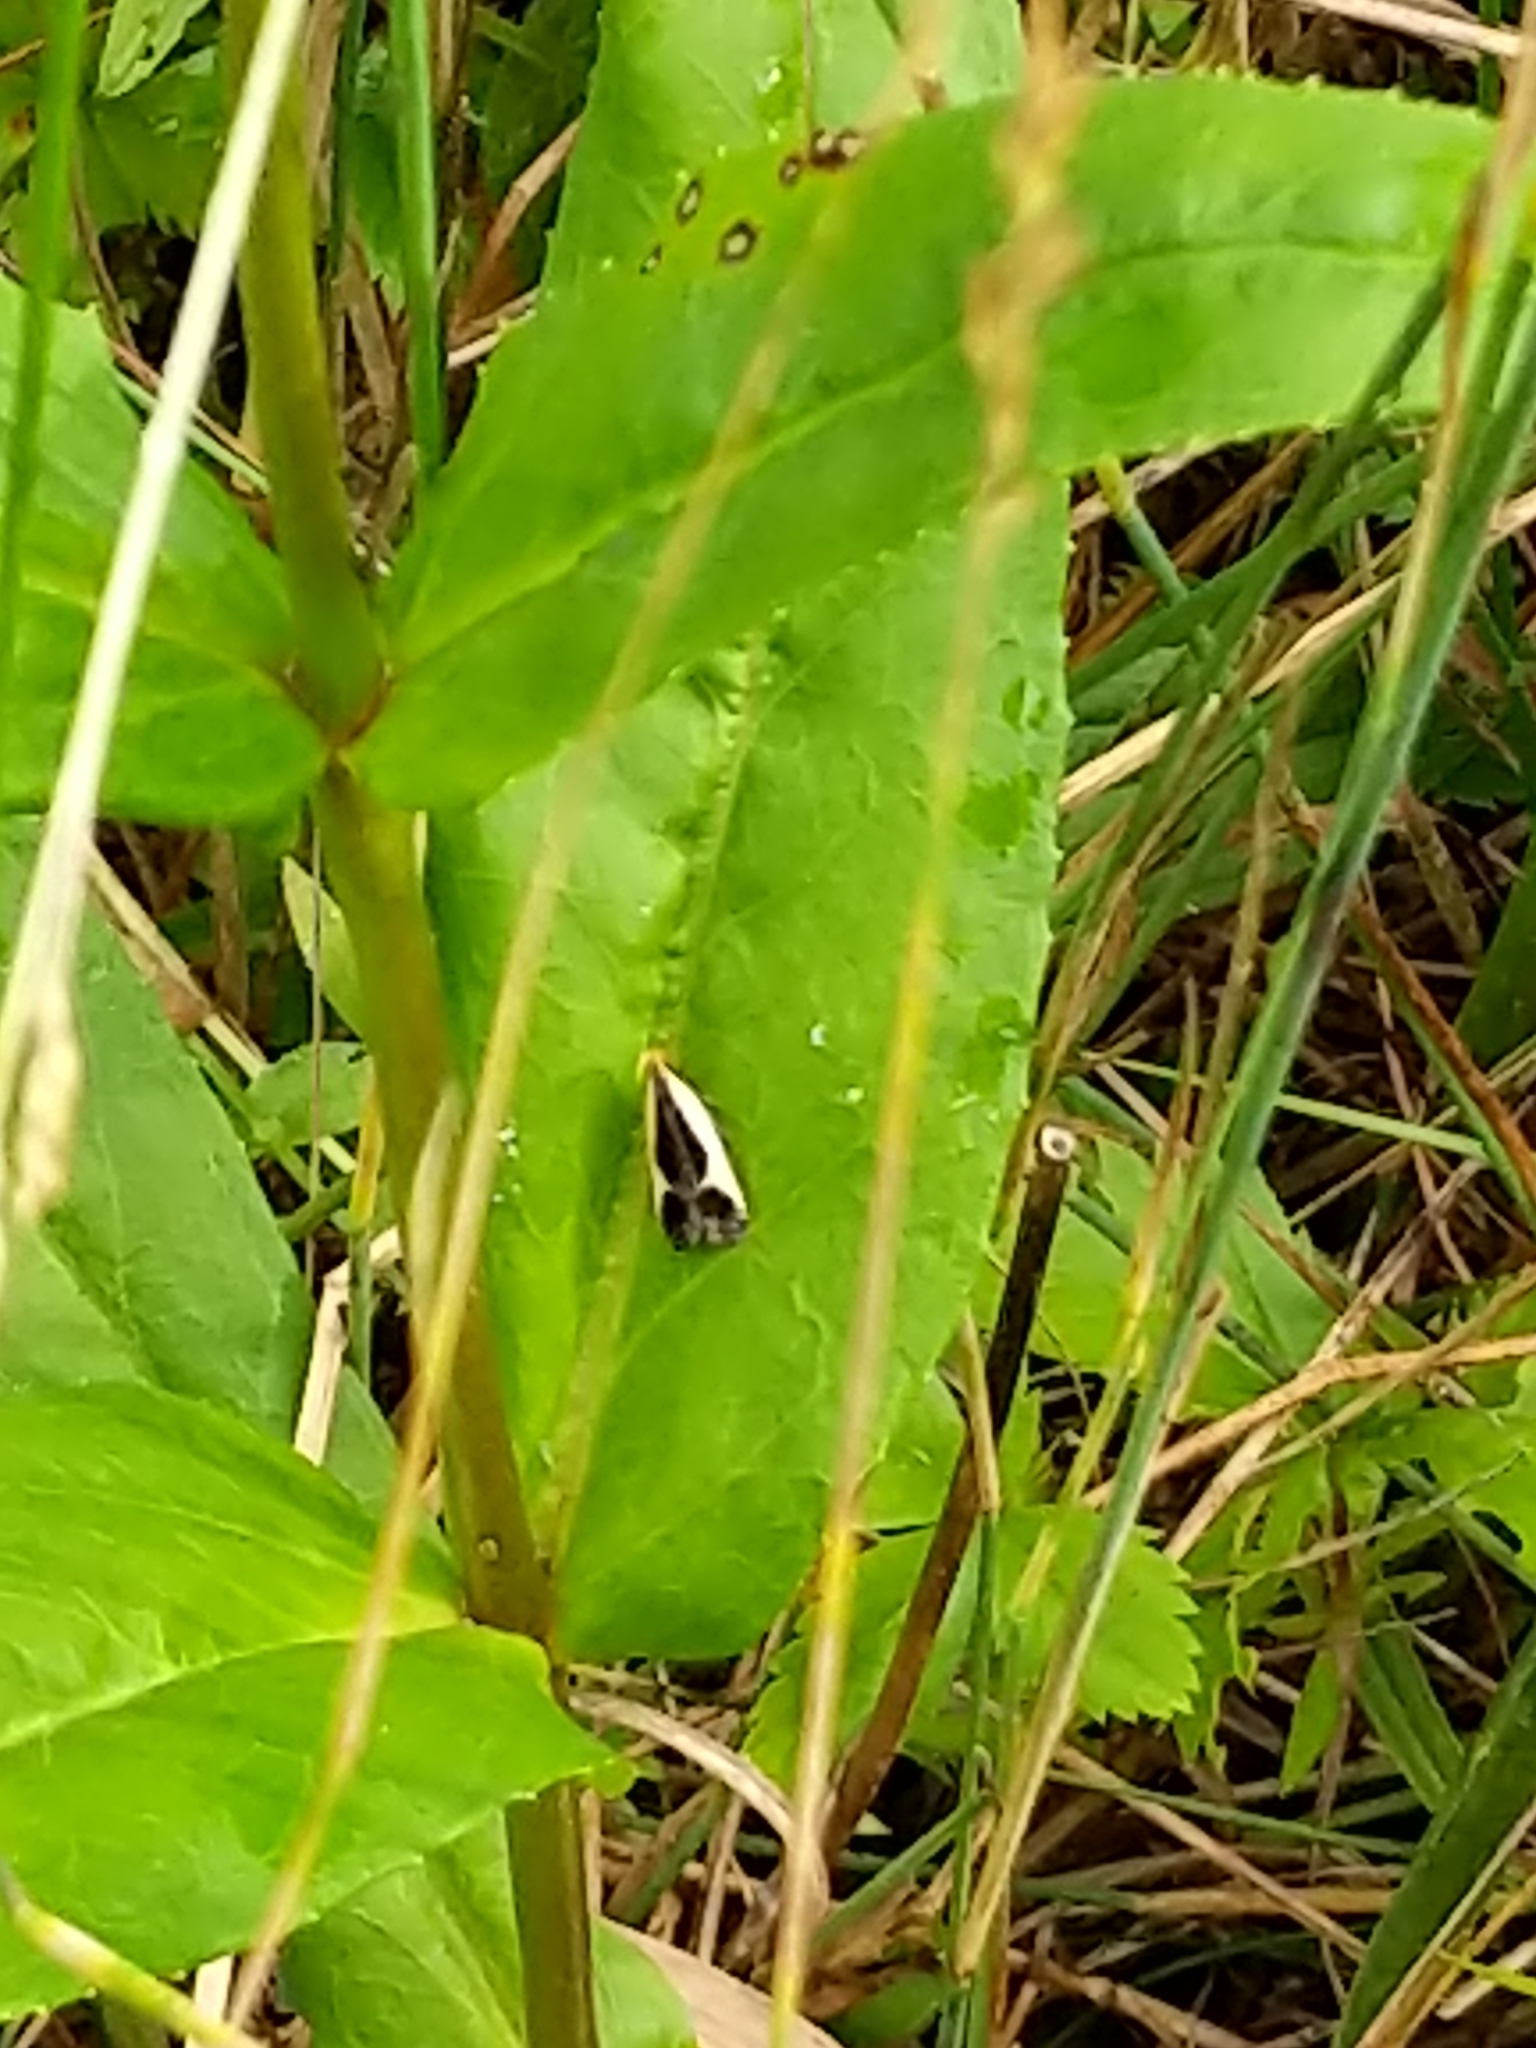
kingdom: Animalia
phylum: Arthropoda
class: Insecta
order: Lepidoptera
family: Gelechiidae
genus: Dichomeris
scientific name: Dichomeris flavocostella
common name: Cream-edged dichomeris moth
